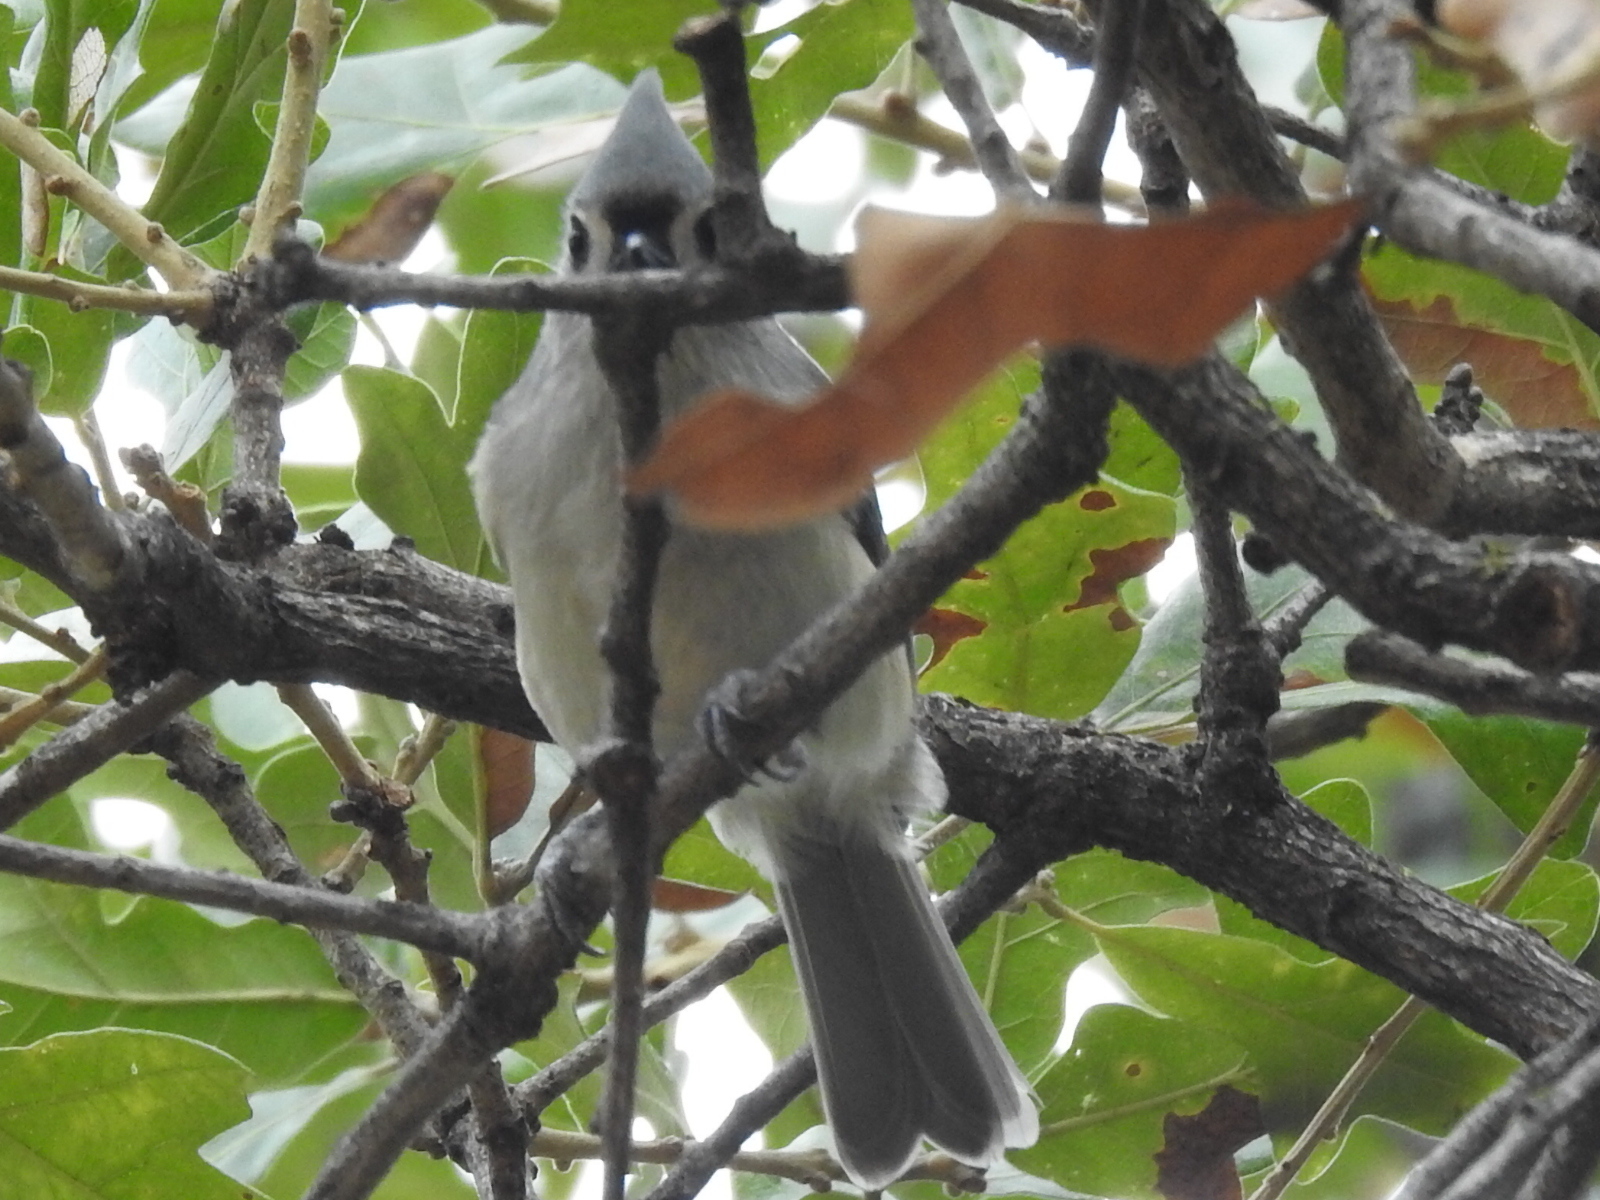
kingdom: Animalia
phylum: Chordata
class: Aves
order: Passeriformes
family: Paridae
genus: Baeolophus
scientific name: Baeolophus bicolor
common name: Tufted titmouse
